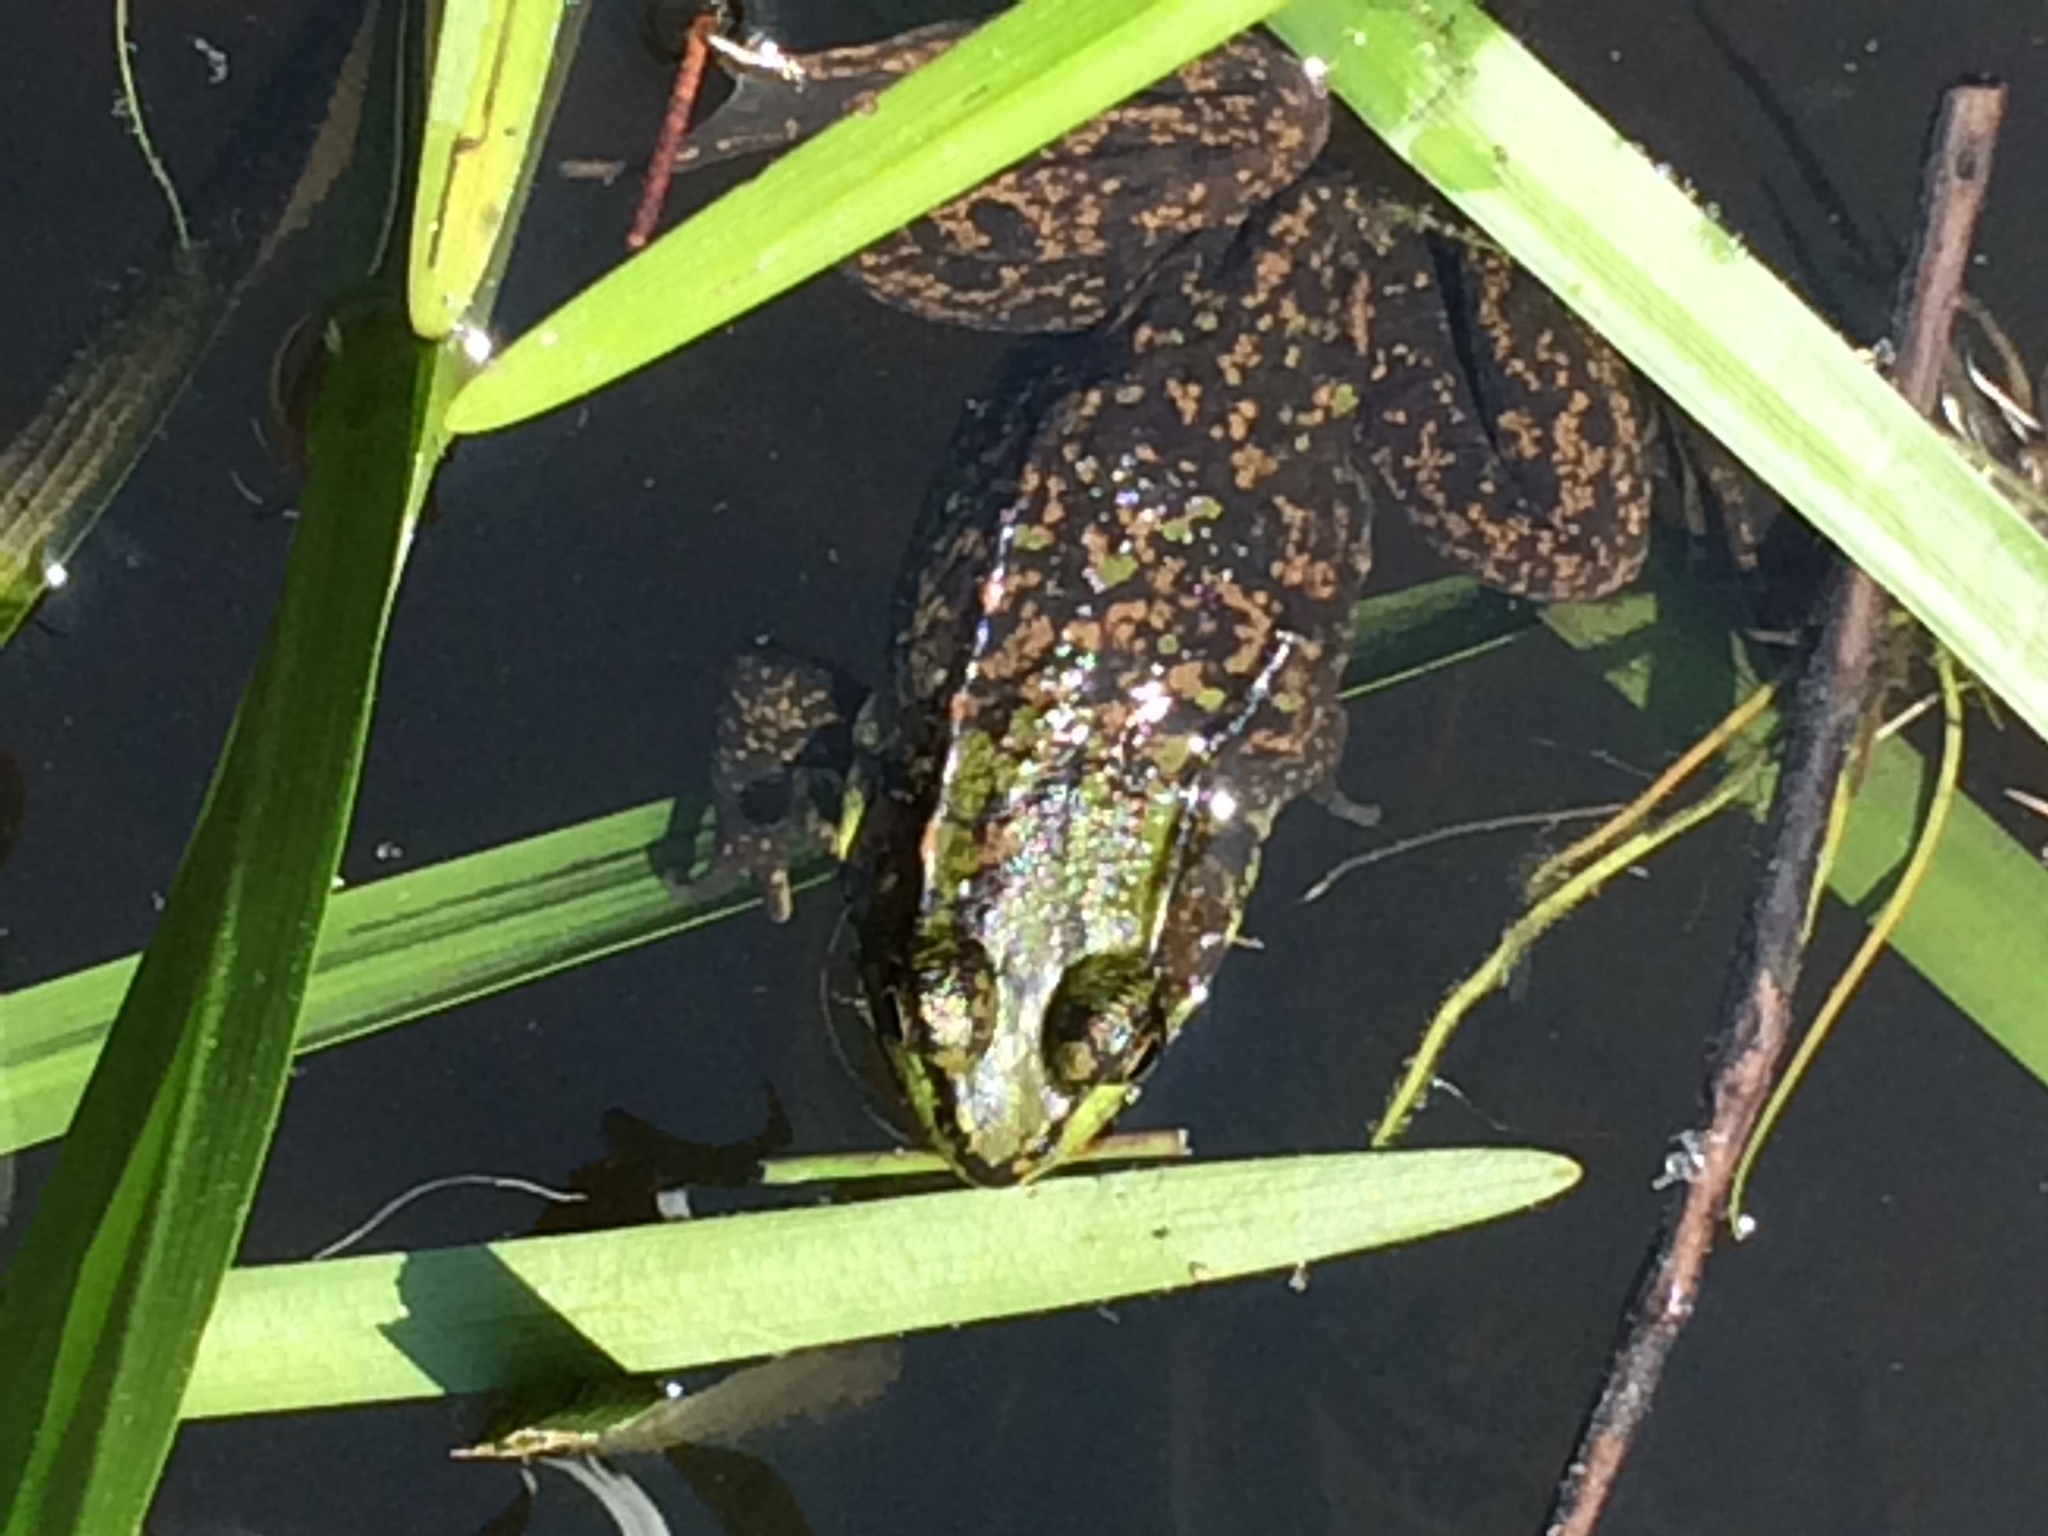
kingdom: Animalia
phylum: Chordata
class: Amphibia
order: Anura
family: Ranidae
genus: Lithobates
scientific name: Lithobates clamitans
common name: Green frog
